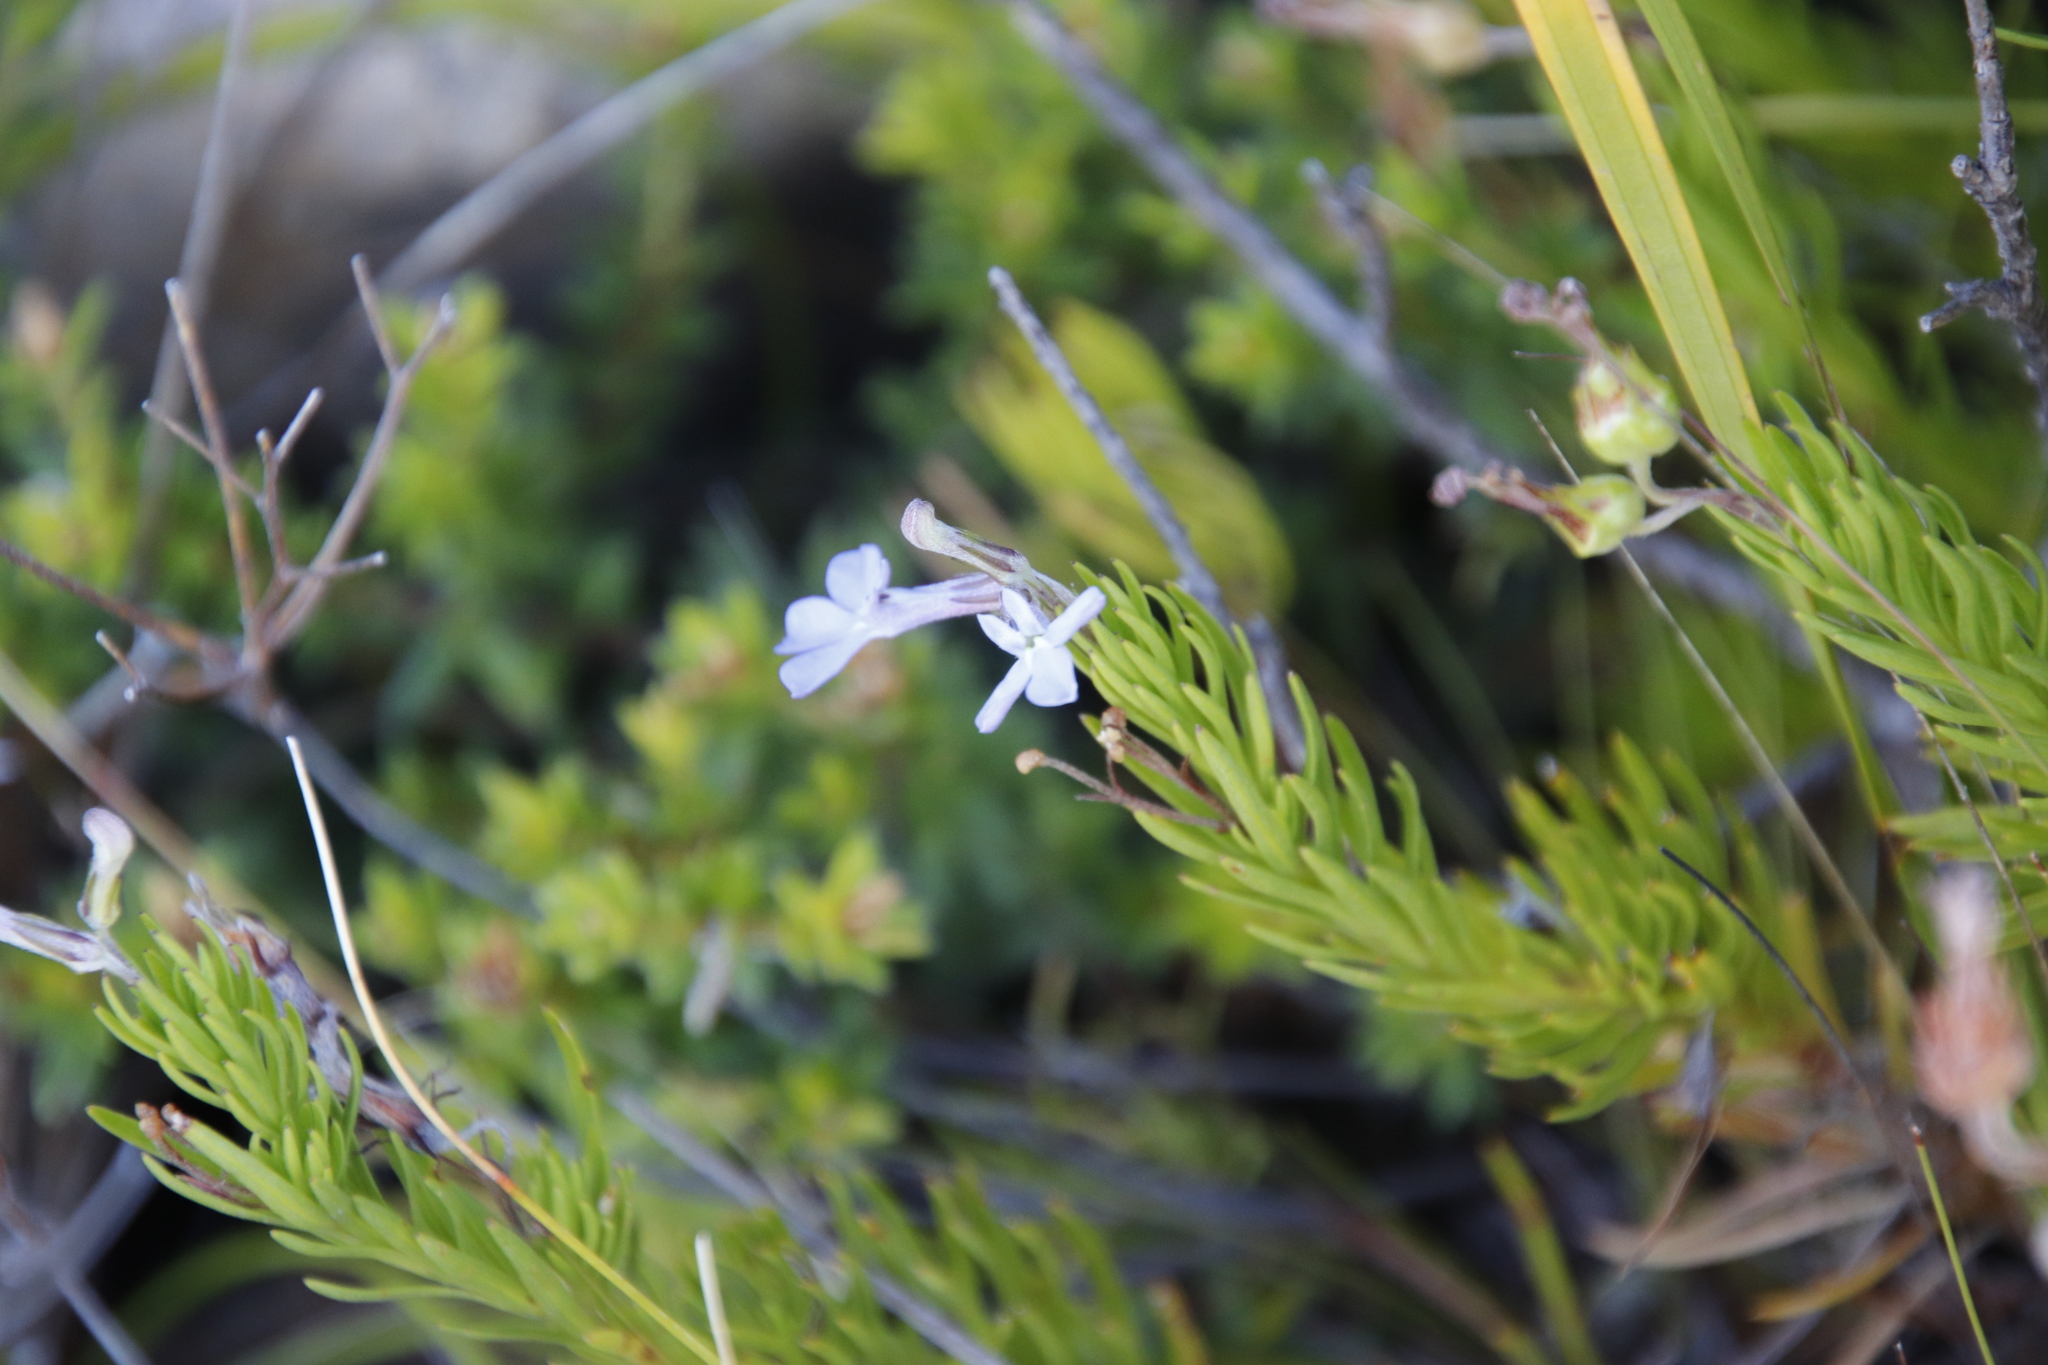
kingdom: Plantae
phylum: Tracheophyta
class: Magnoliopsida
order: Asterales
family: Campanulaceae
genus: Lobelia
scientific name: Lobelia pinifolia
